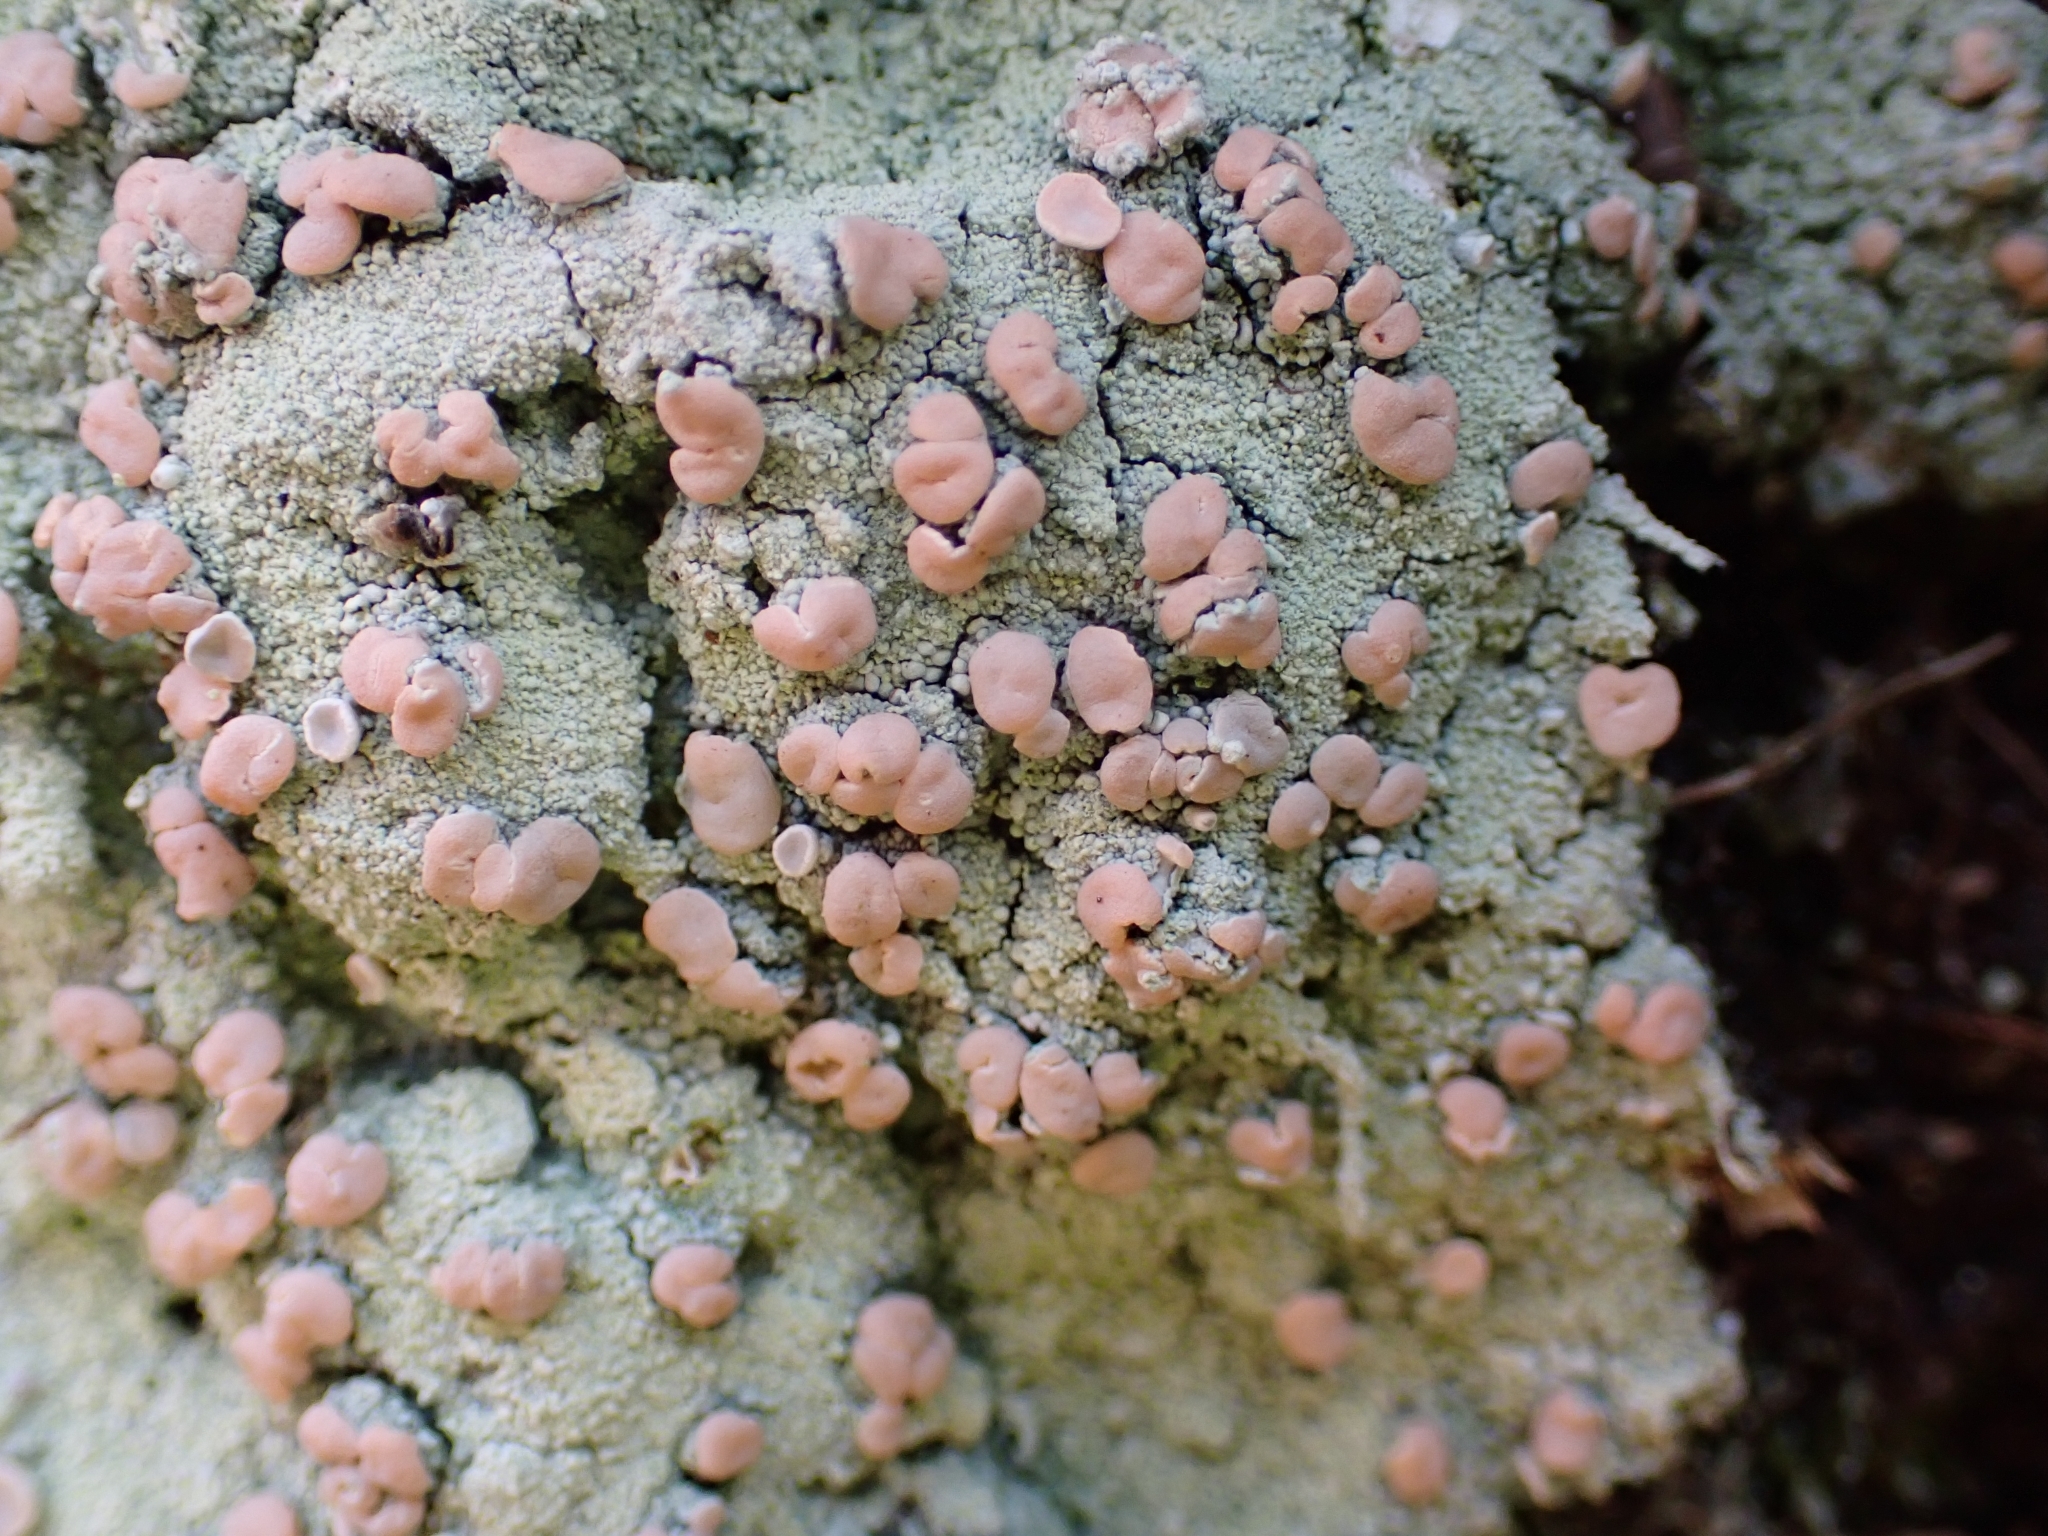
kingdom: Fungi
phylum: Ascomycota
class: Lecanoromycetes
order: Pertusariales
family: Icmadophilaceae
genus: Icmadophila
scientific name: Icmadophila ericetorum
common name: Candy lichen
